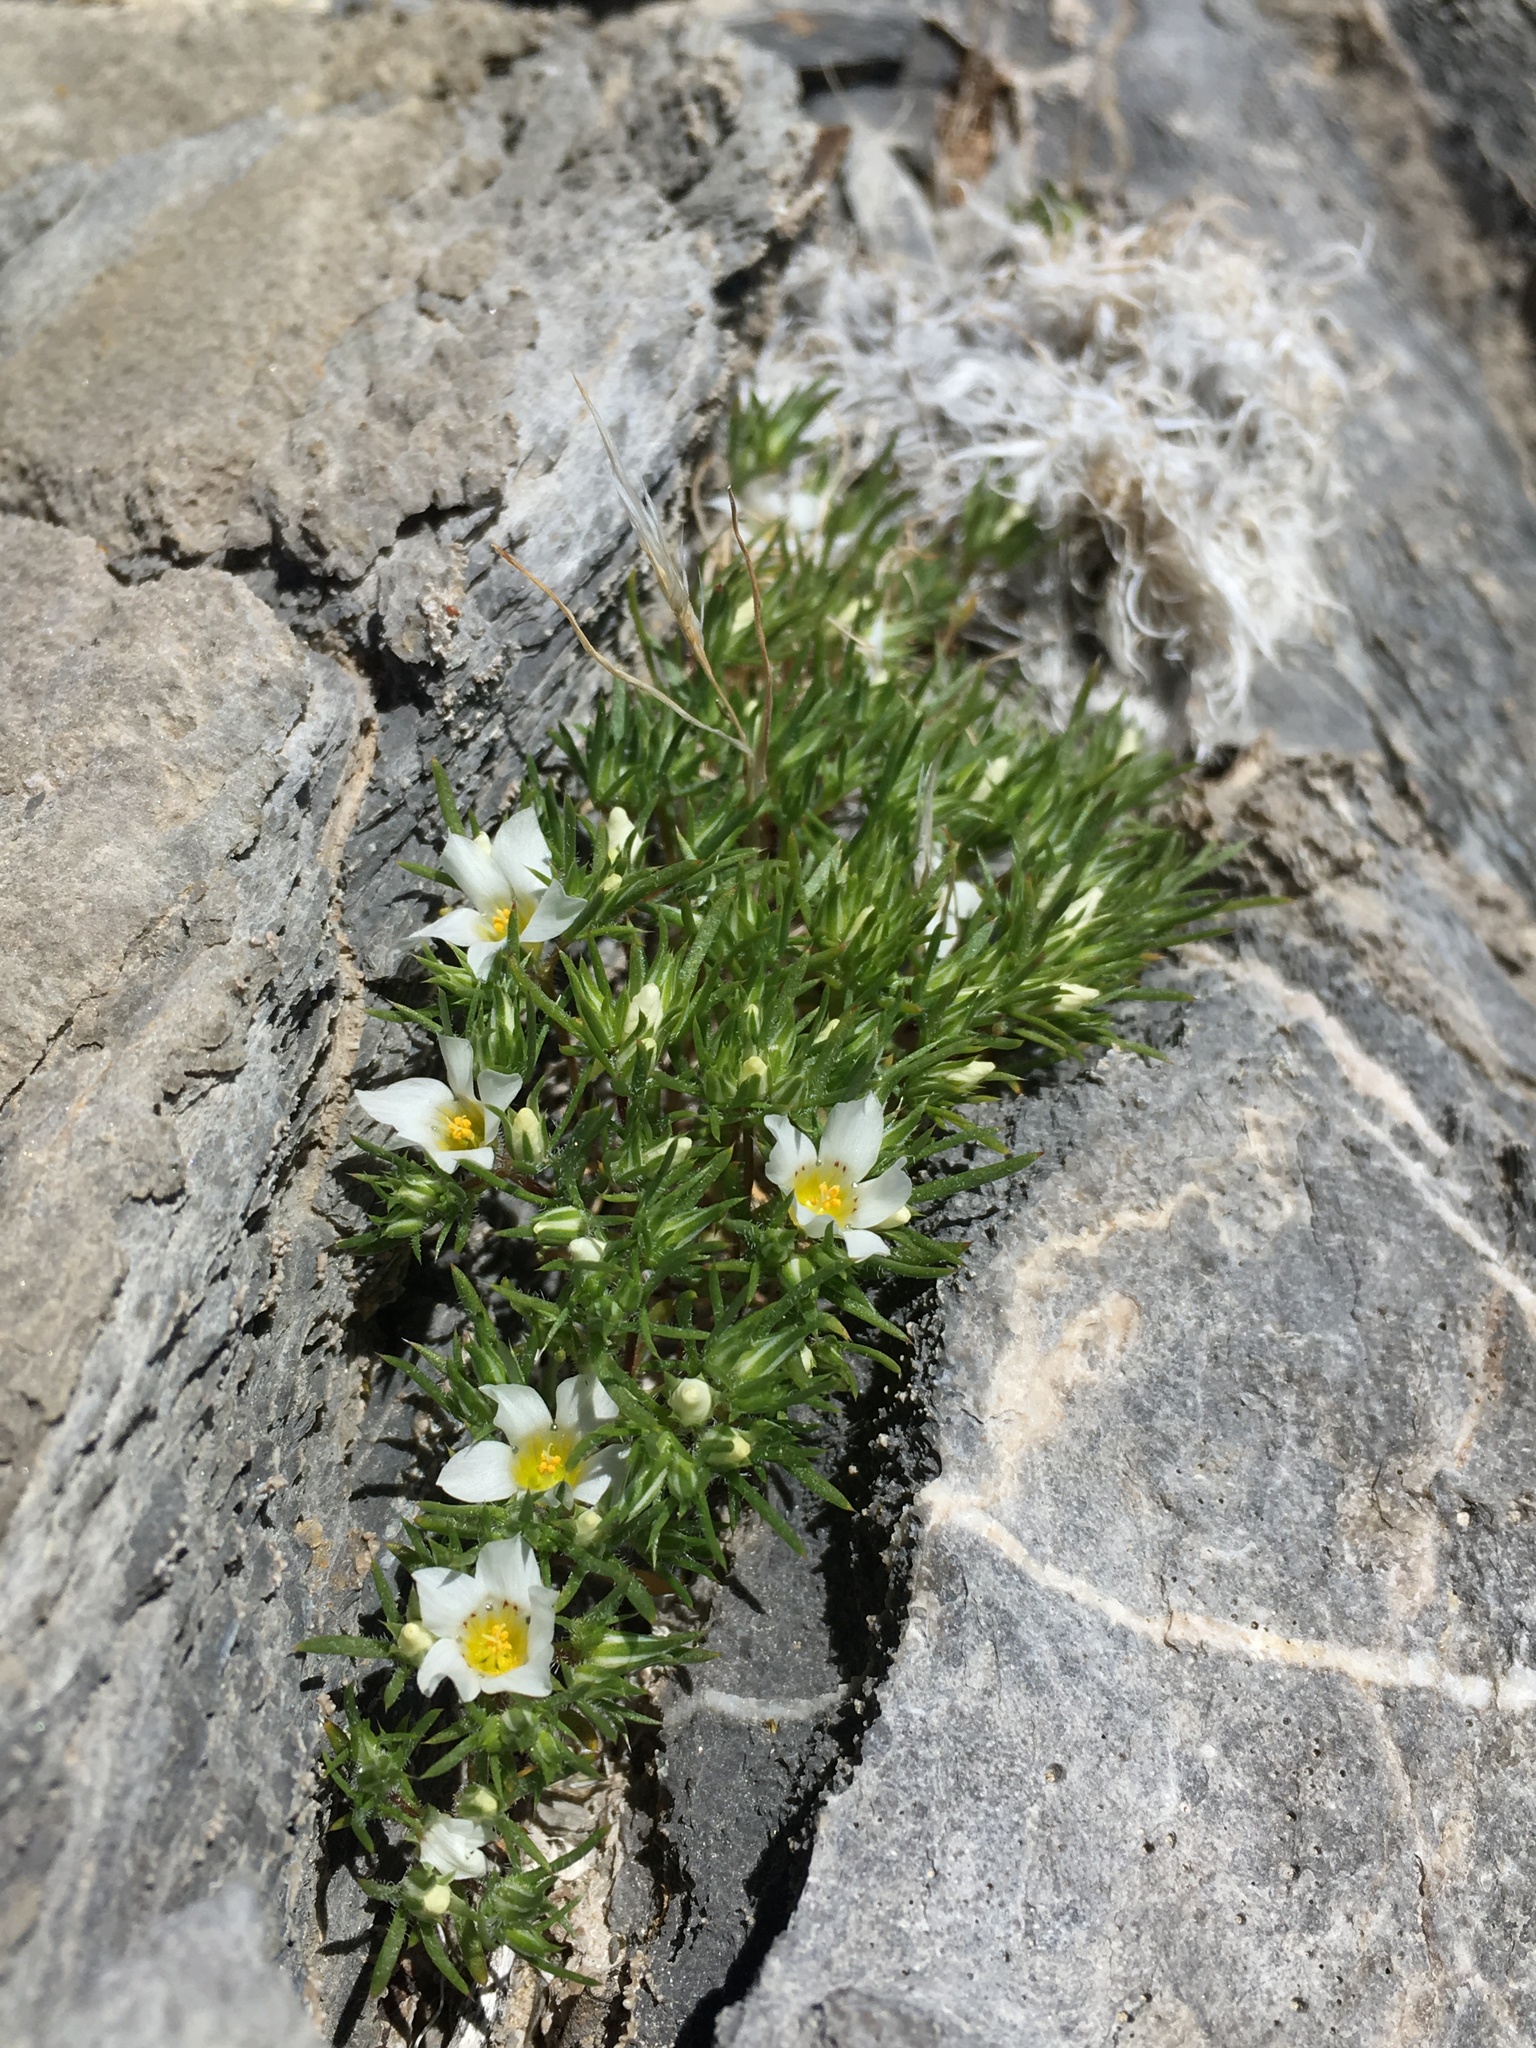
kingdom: Plantae
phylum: Tracheophyta
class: Magnoliopsida
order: Ericales
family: Polemoniaceae
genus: Linanthus
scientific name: Linanthus demissus
